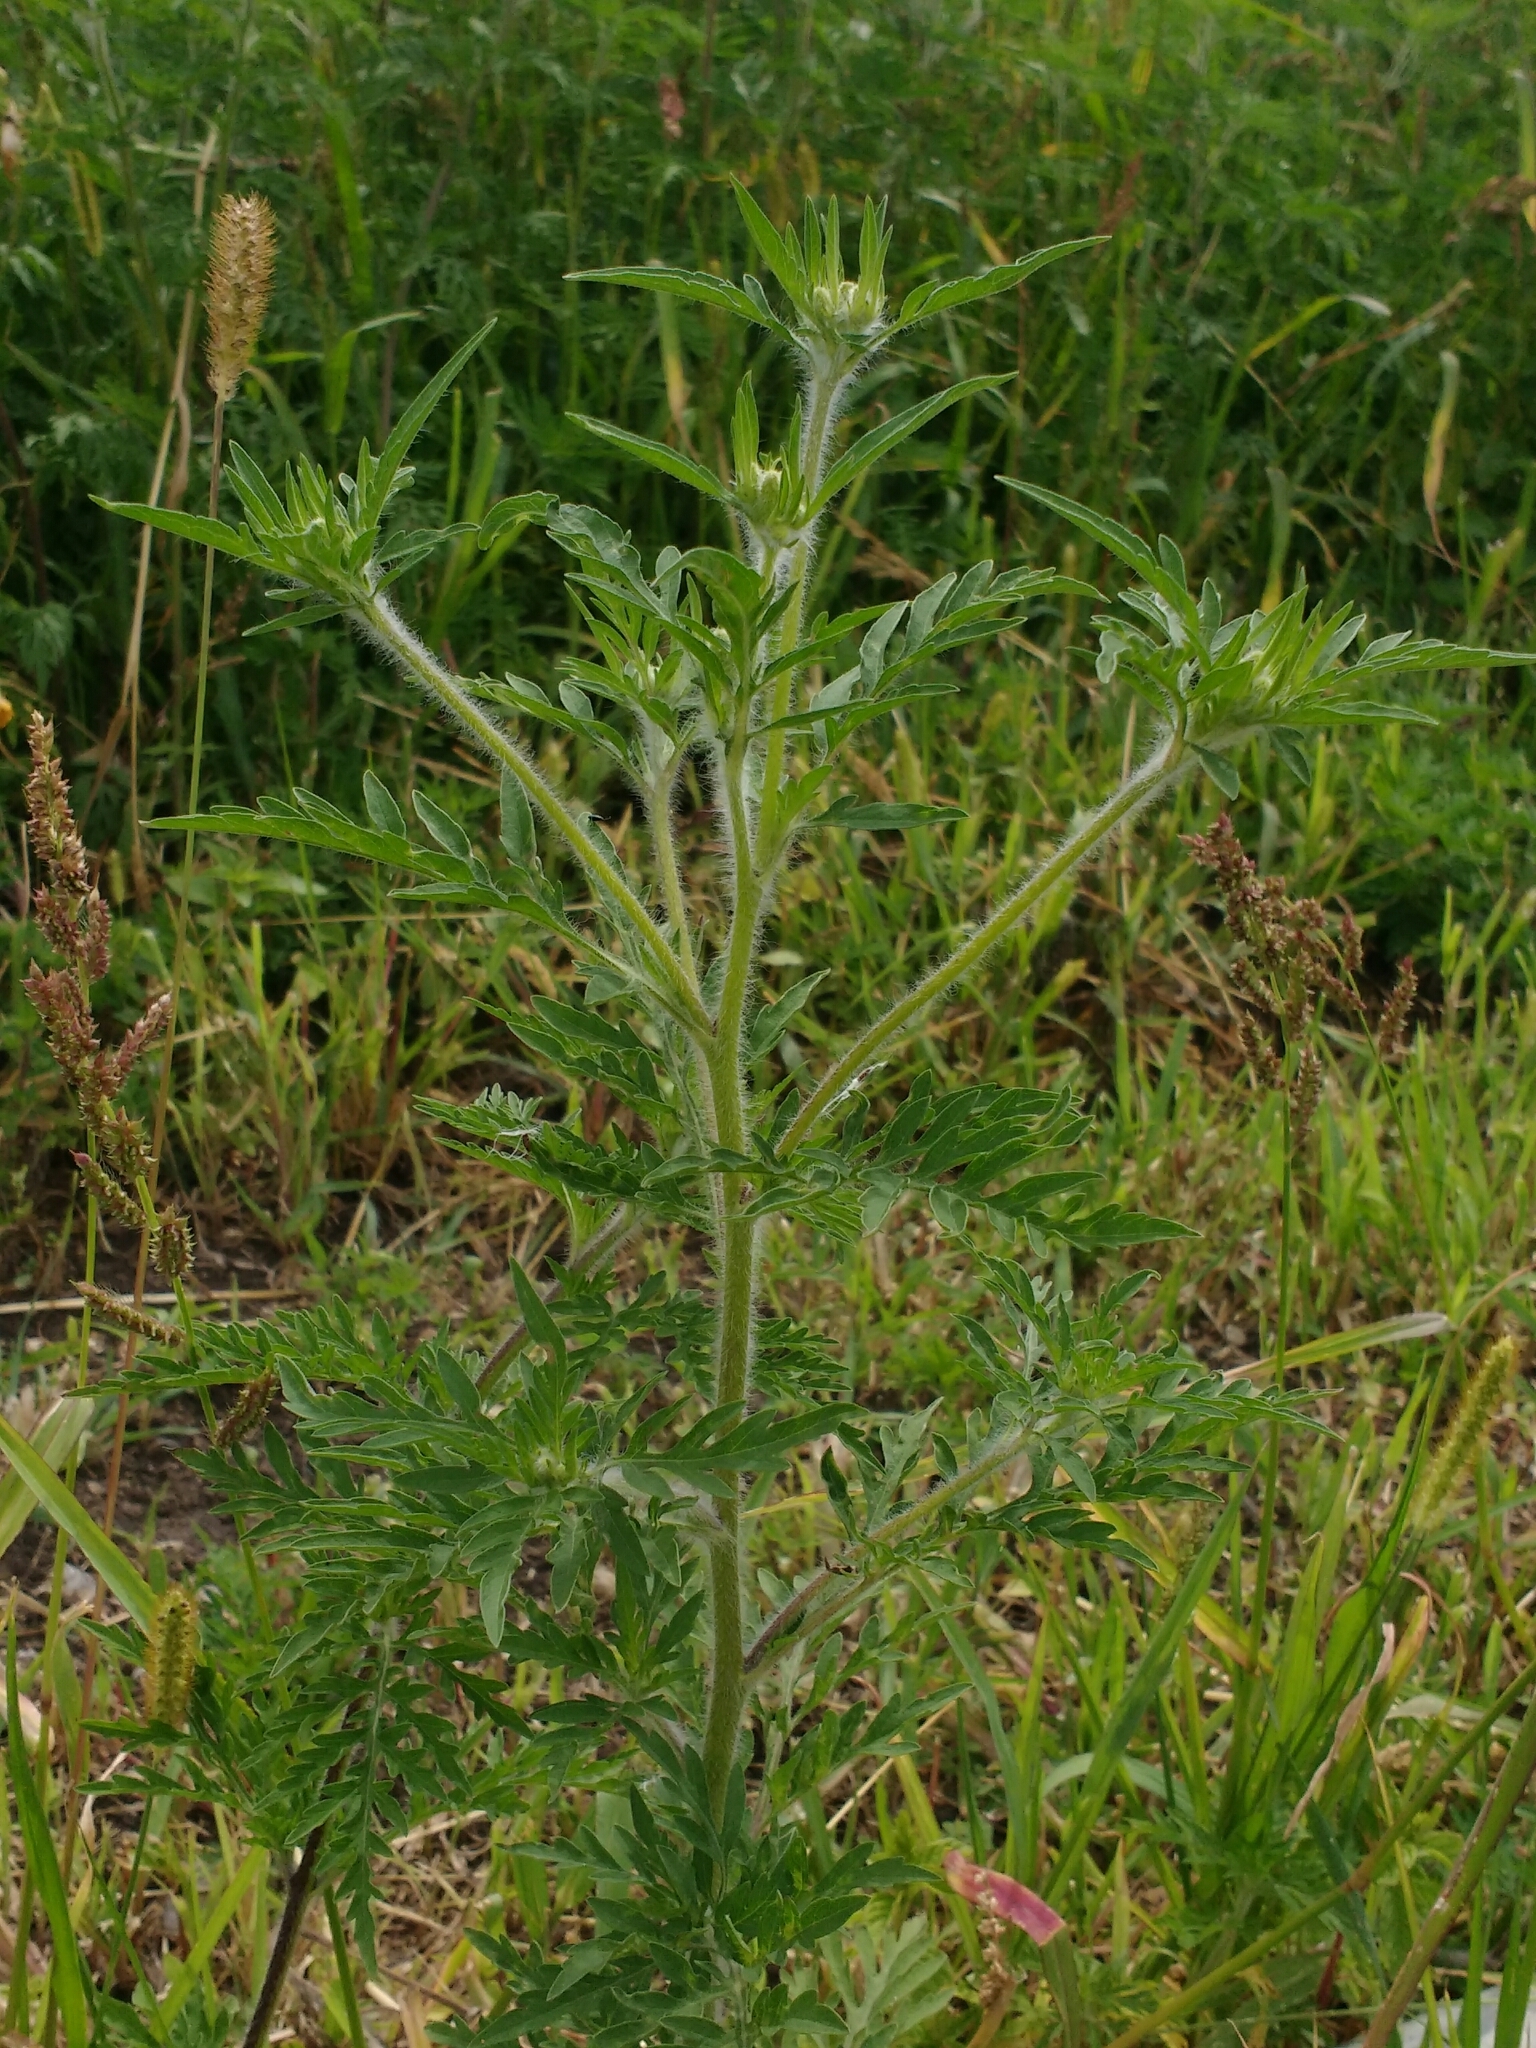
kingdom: Plantae
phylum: Tracheophyta
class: Magnoliopsida
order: Asterales
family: Asteraceae
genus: Ambrosia
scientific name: Ambrosia artemisiifolia
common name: Annual ragweed
